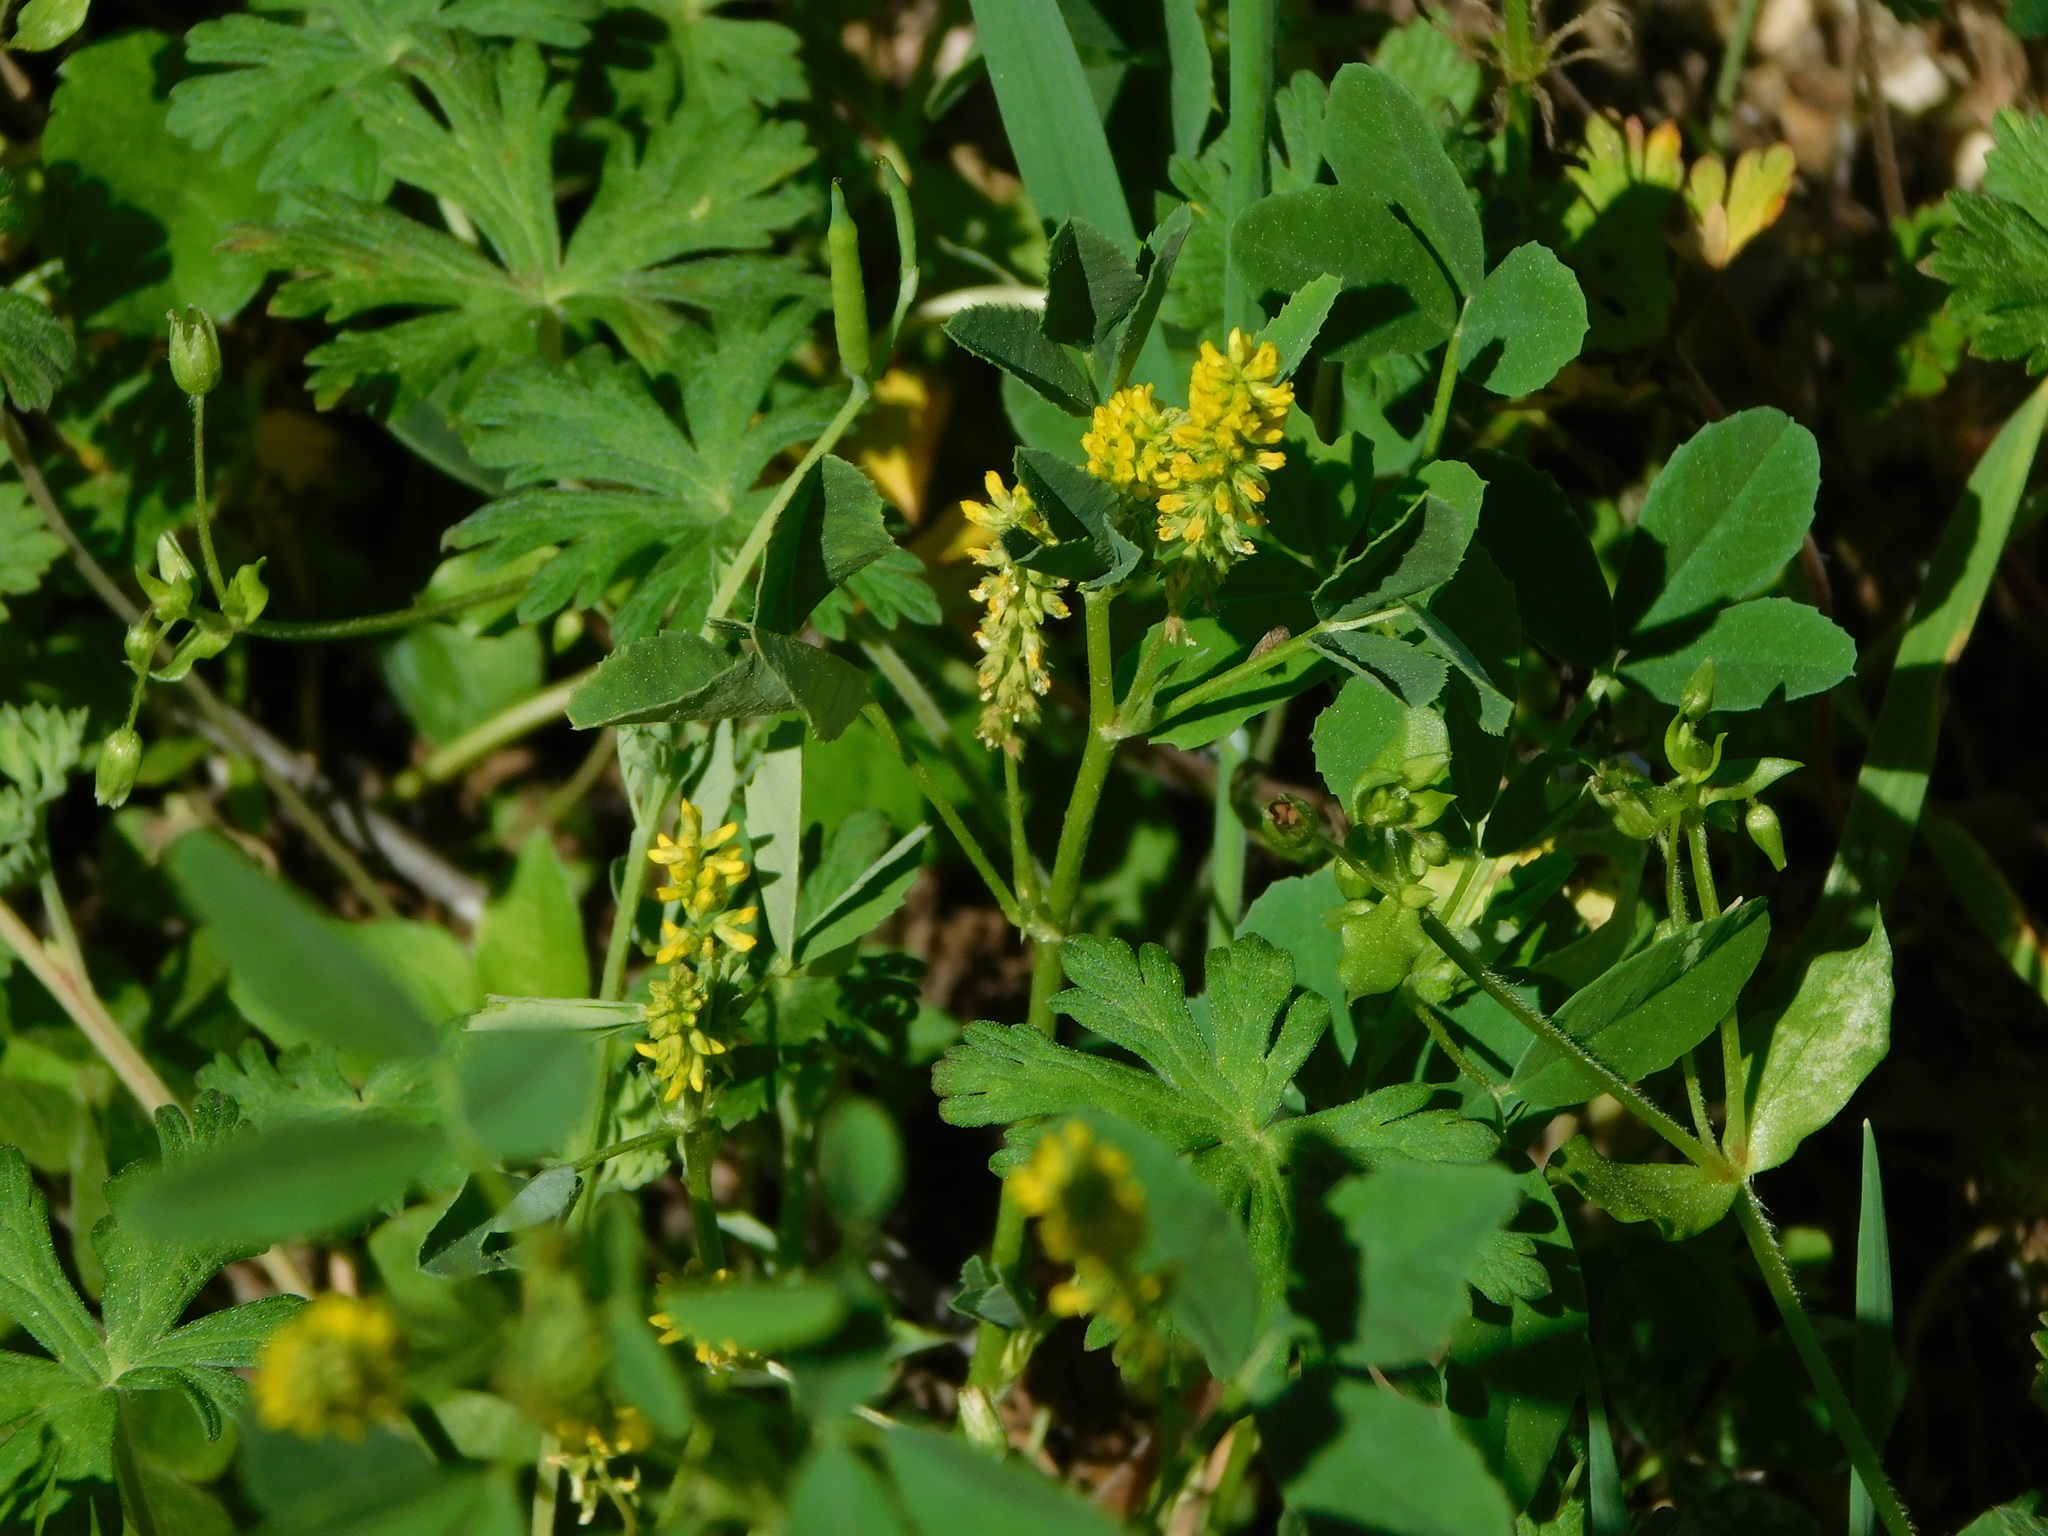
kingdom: Plantae
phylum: Tracheophyta
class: Magnoliopsida
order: Fabales
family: Fabaceae
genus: Melilotus
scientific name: Melilotus indicus
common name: Small melilot
